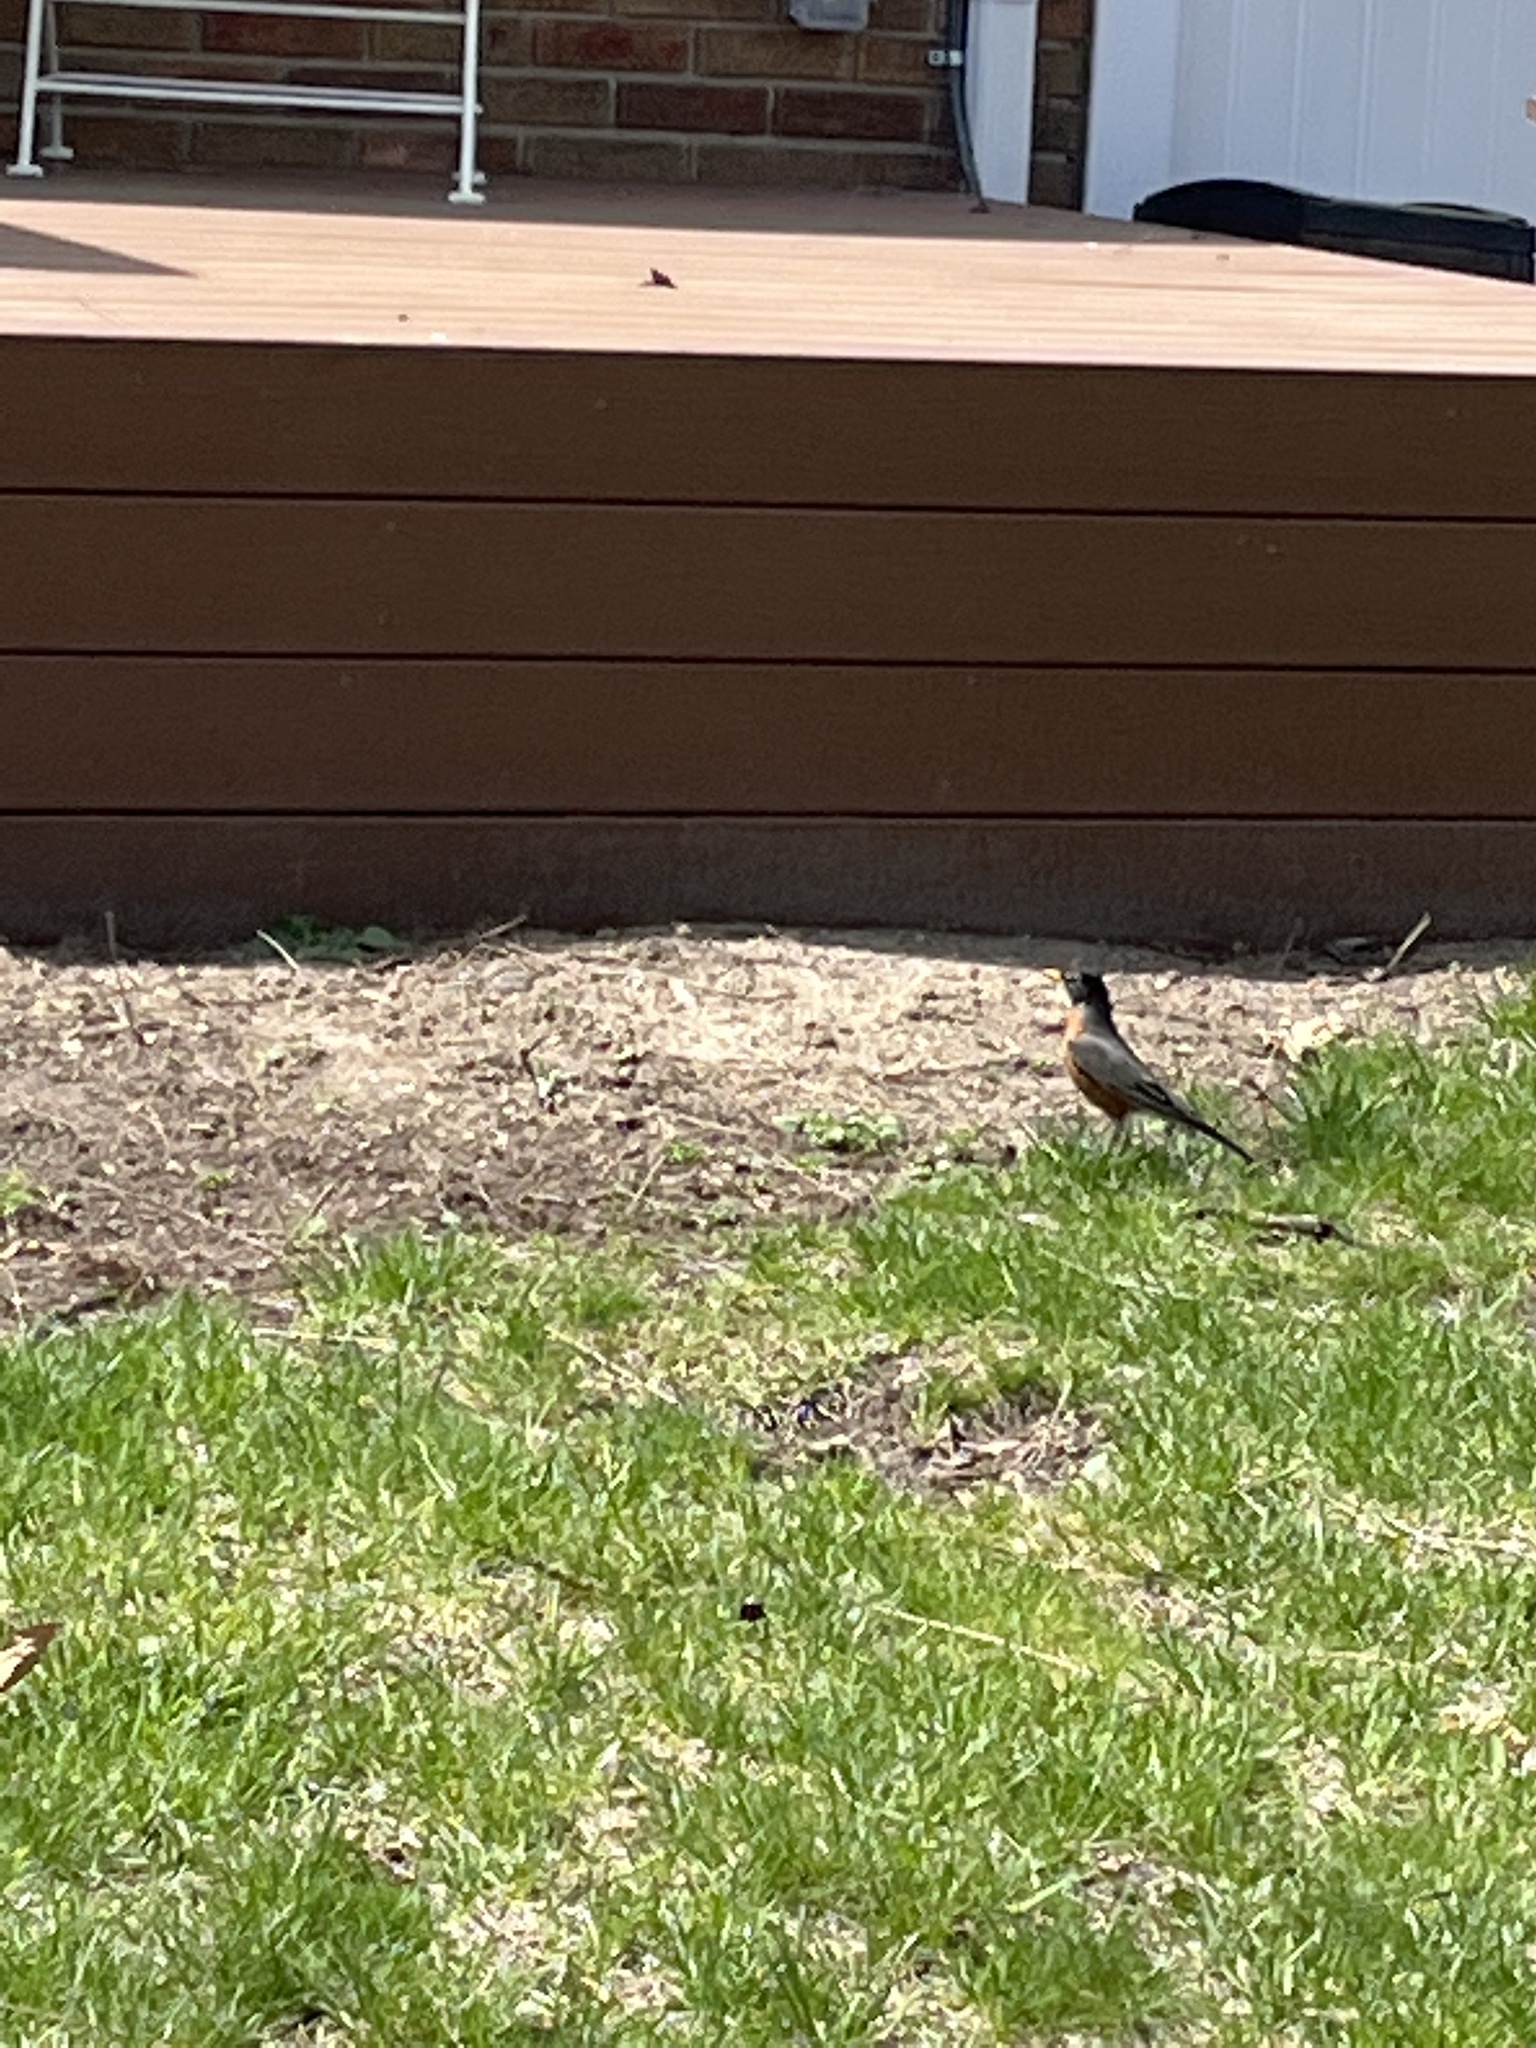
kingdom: Animalia
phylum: Chordata
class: Aves
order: Passeriformes
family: Turdidae
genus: Turdus
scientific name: Turdus migratorius
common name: American robin
